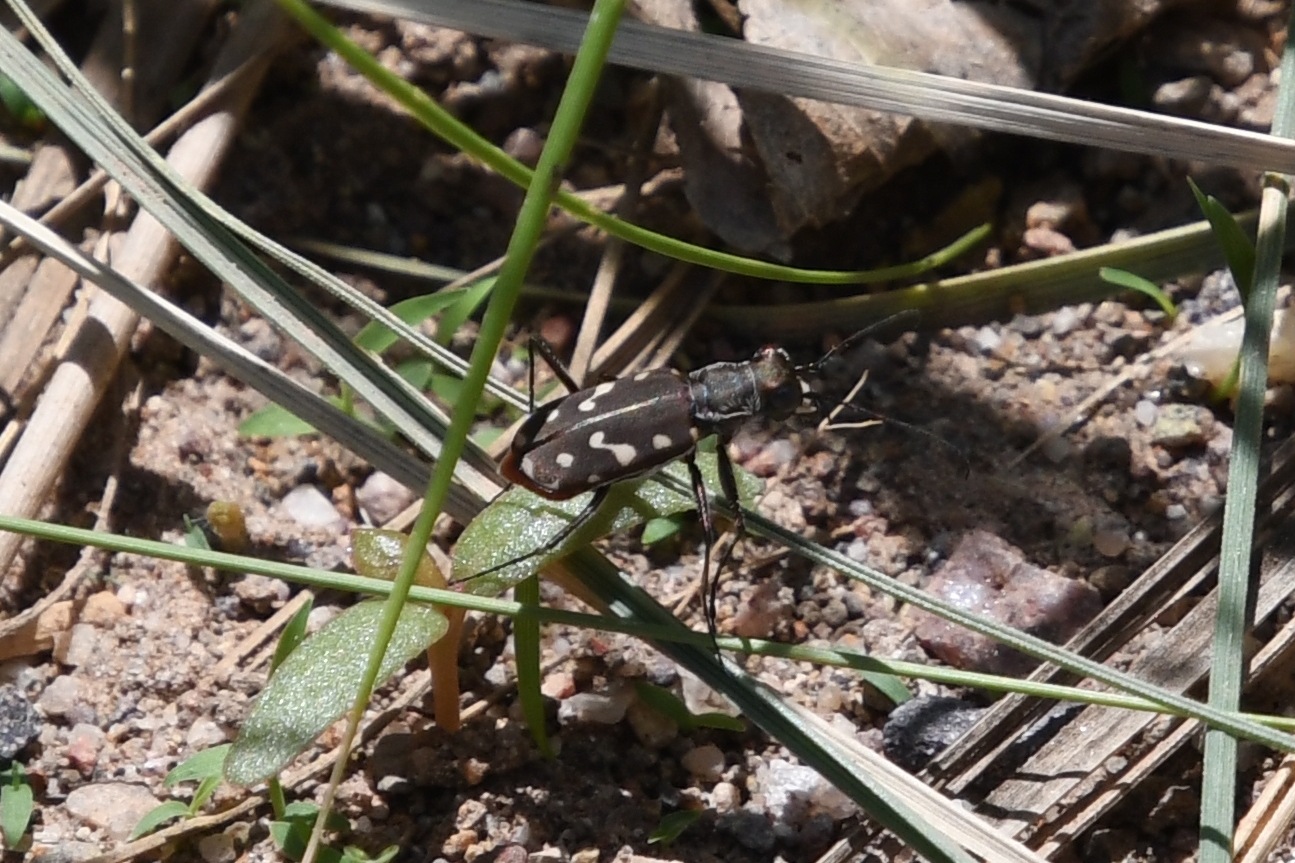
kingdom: Animalia
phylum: Arthropoda
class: Insecta
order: Coleoptera
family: Carabidae
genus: Cicindela
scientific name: Cicindela sedecimpunctata
